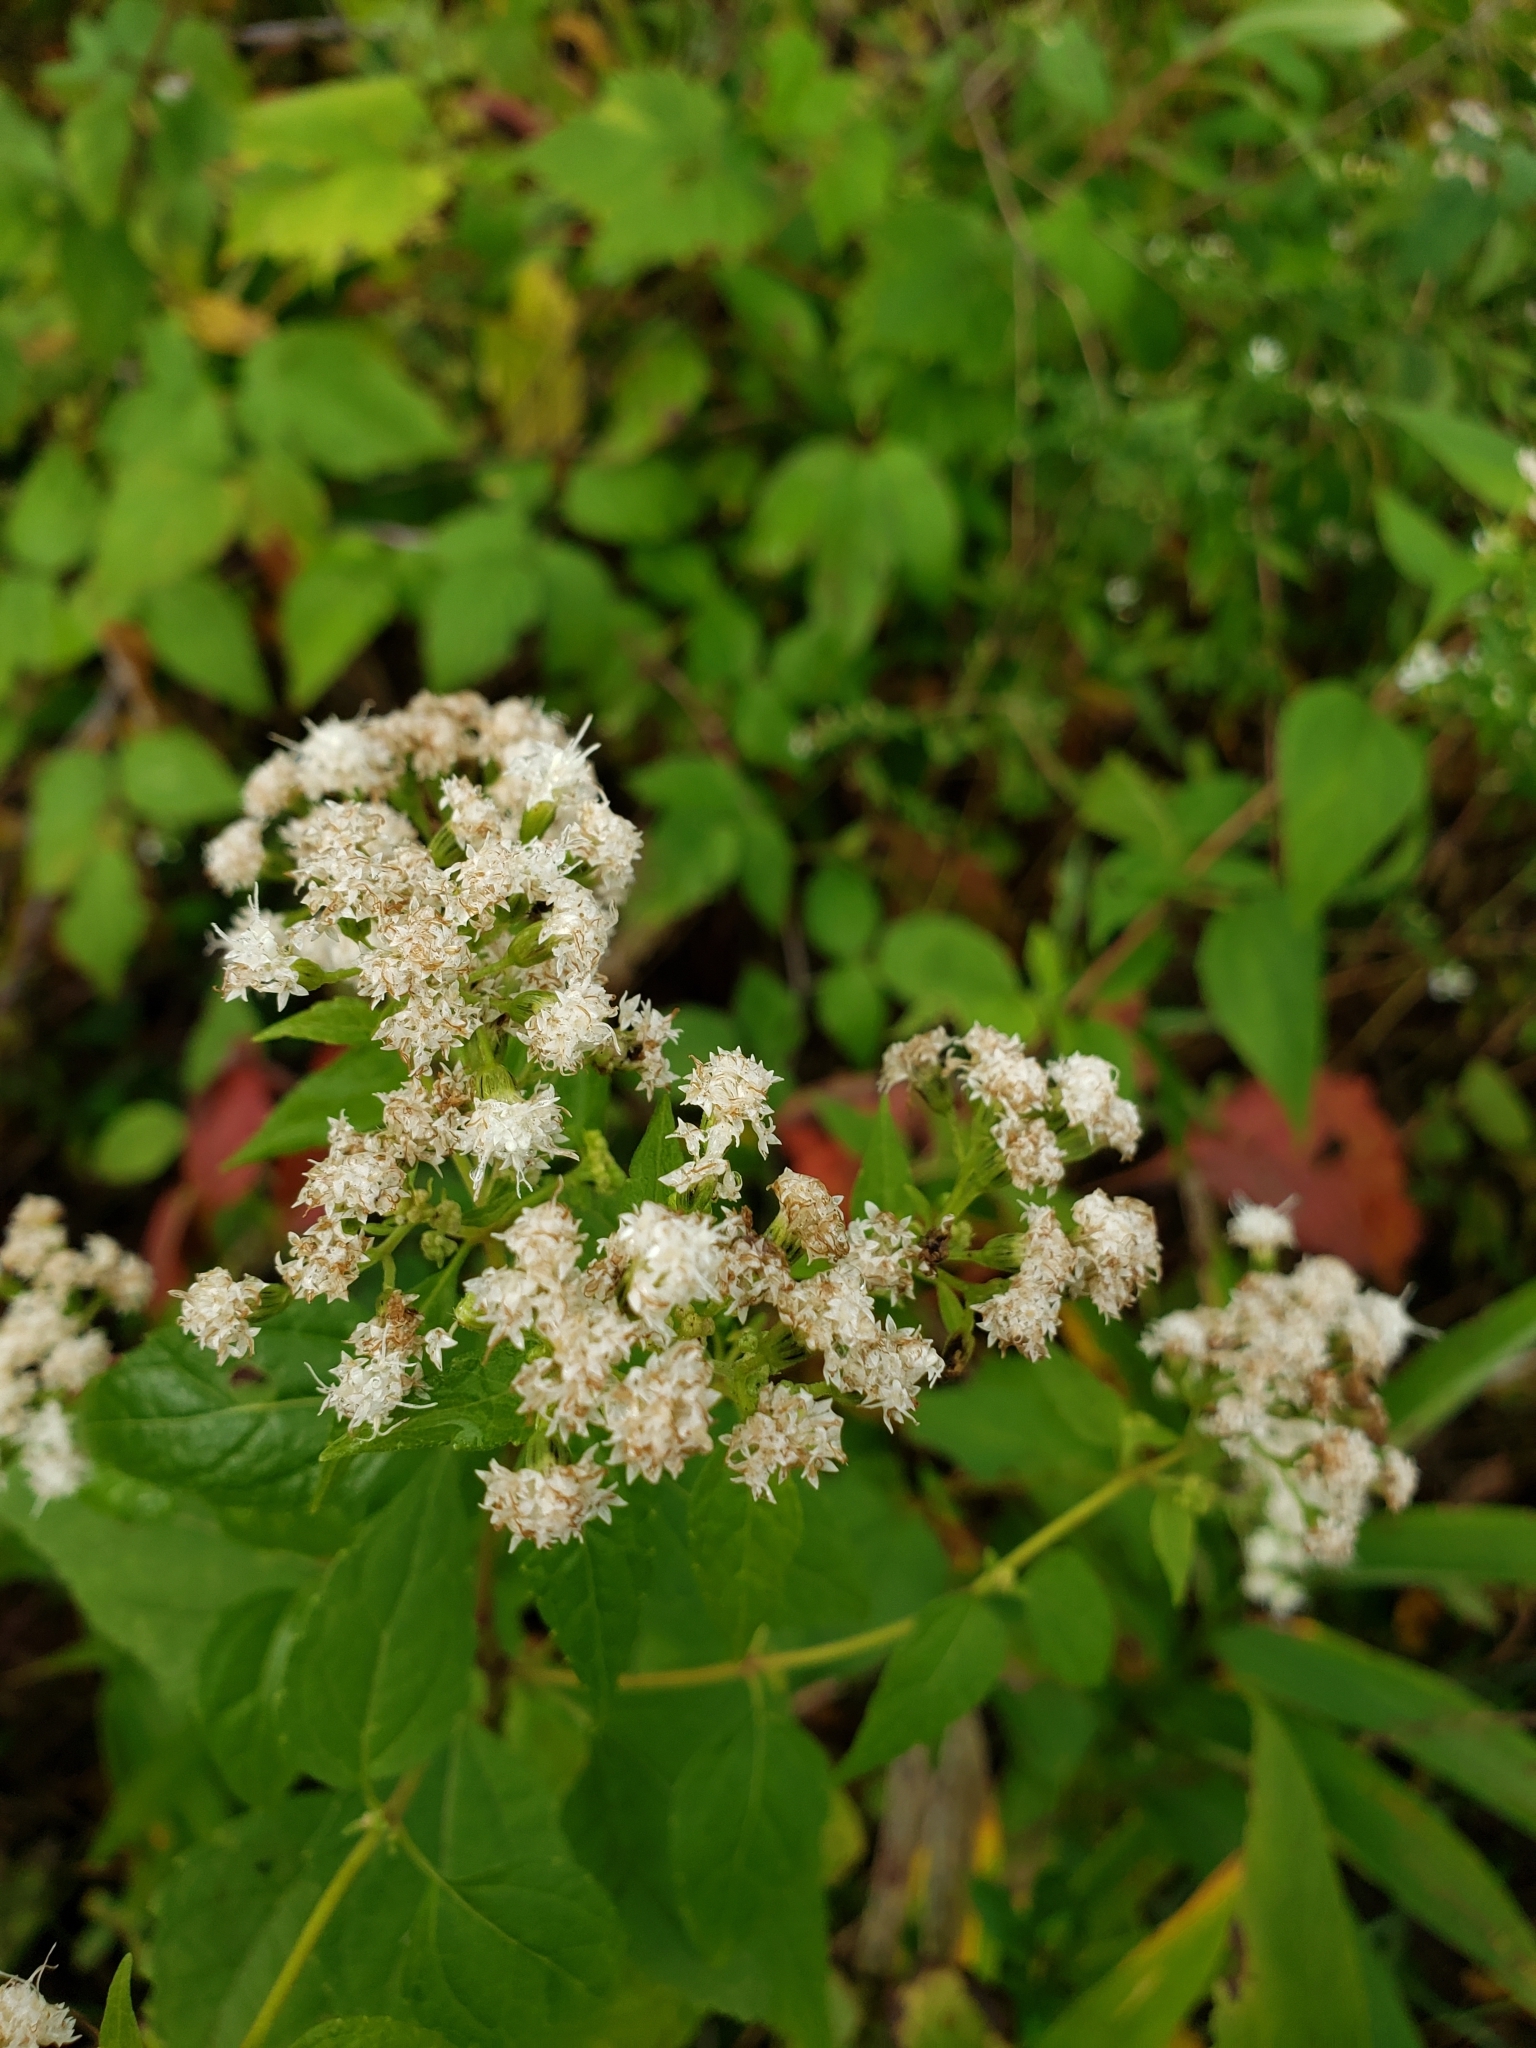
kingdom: Plantae
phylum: Tracheophyta
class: Magnoliopsida
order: Asterales
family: Asteraceae
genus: Ageratina
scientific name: Ageratina altissima
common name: White snakeroot
